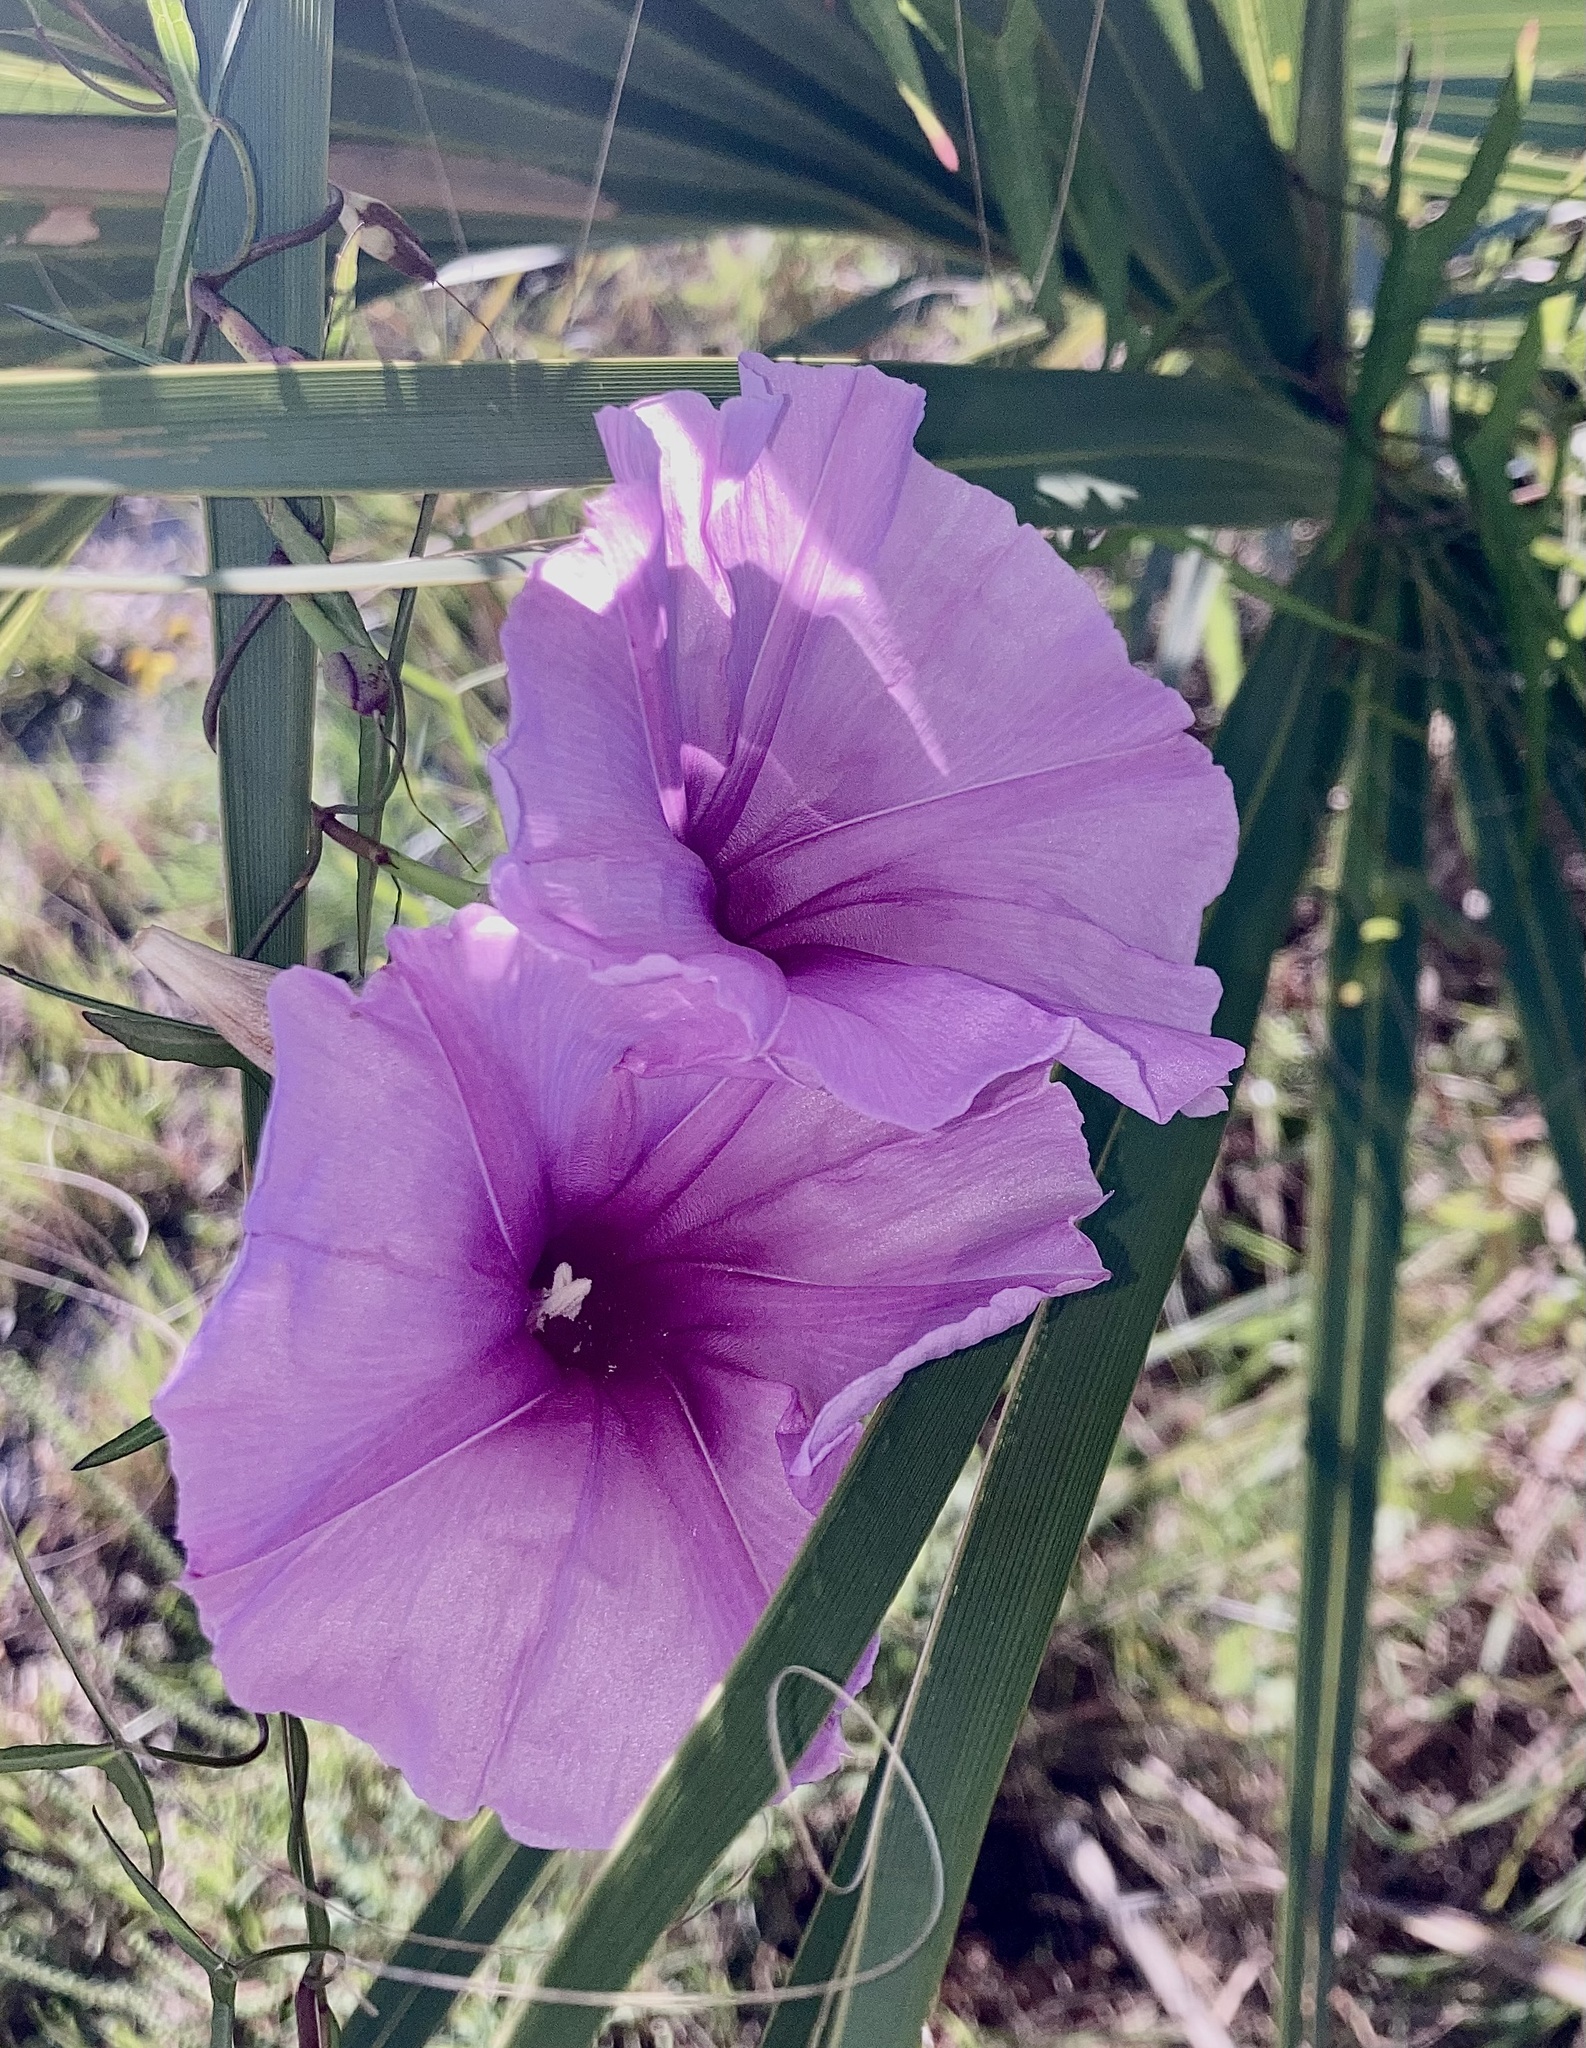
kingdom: Plantae
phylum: Tracheophyta
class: Magnoliopsida
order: Solanales
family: Convolvulaceae
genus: Ipomoea
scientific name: Ipomoea sagittata
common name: Saltmarsh morning glory
